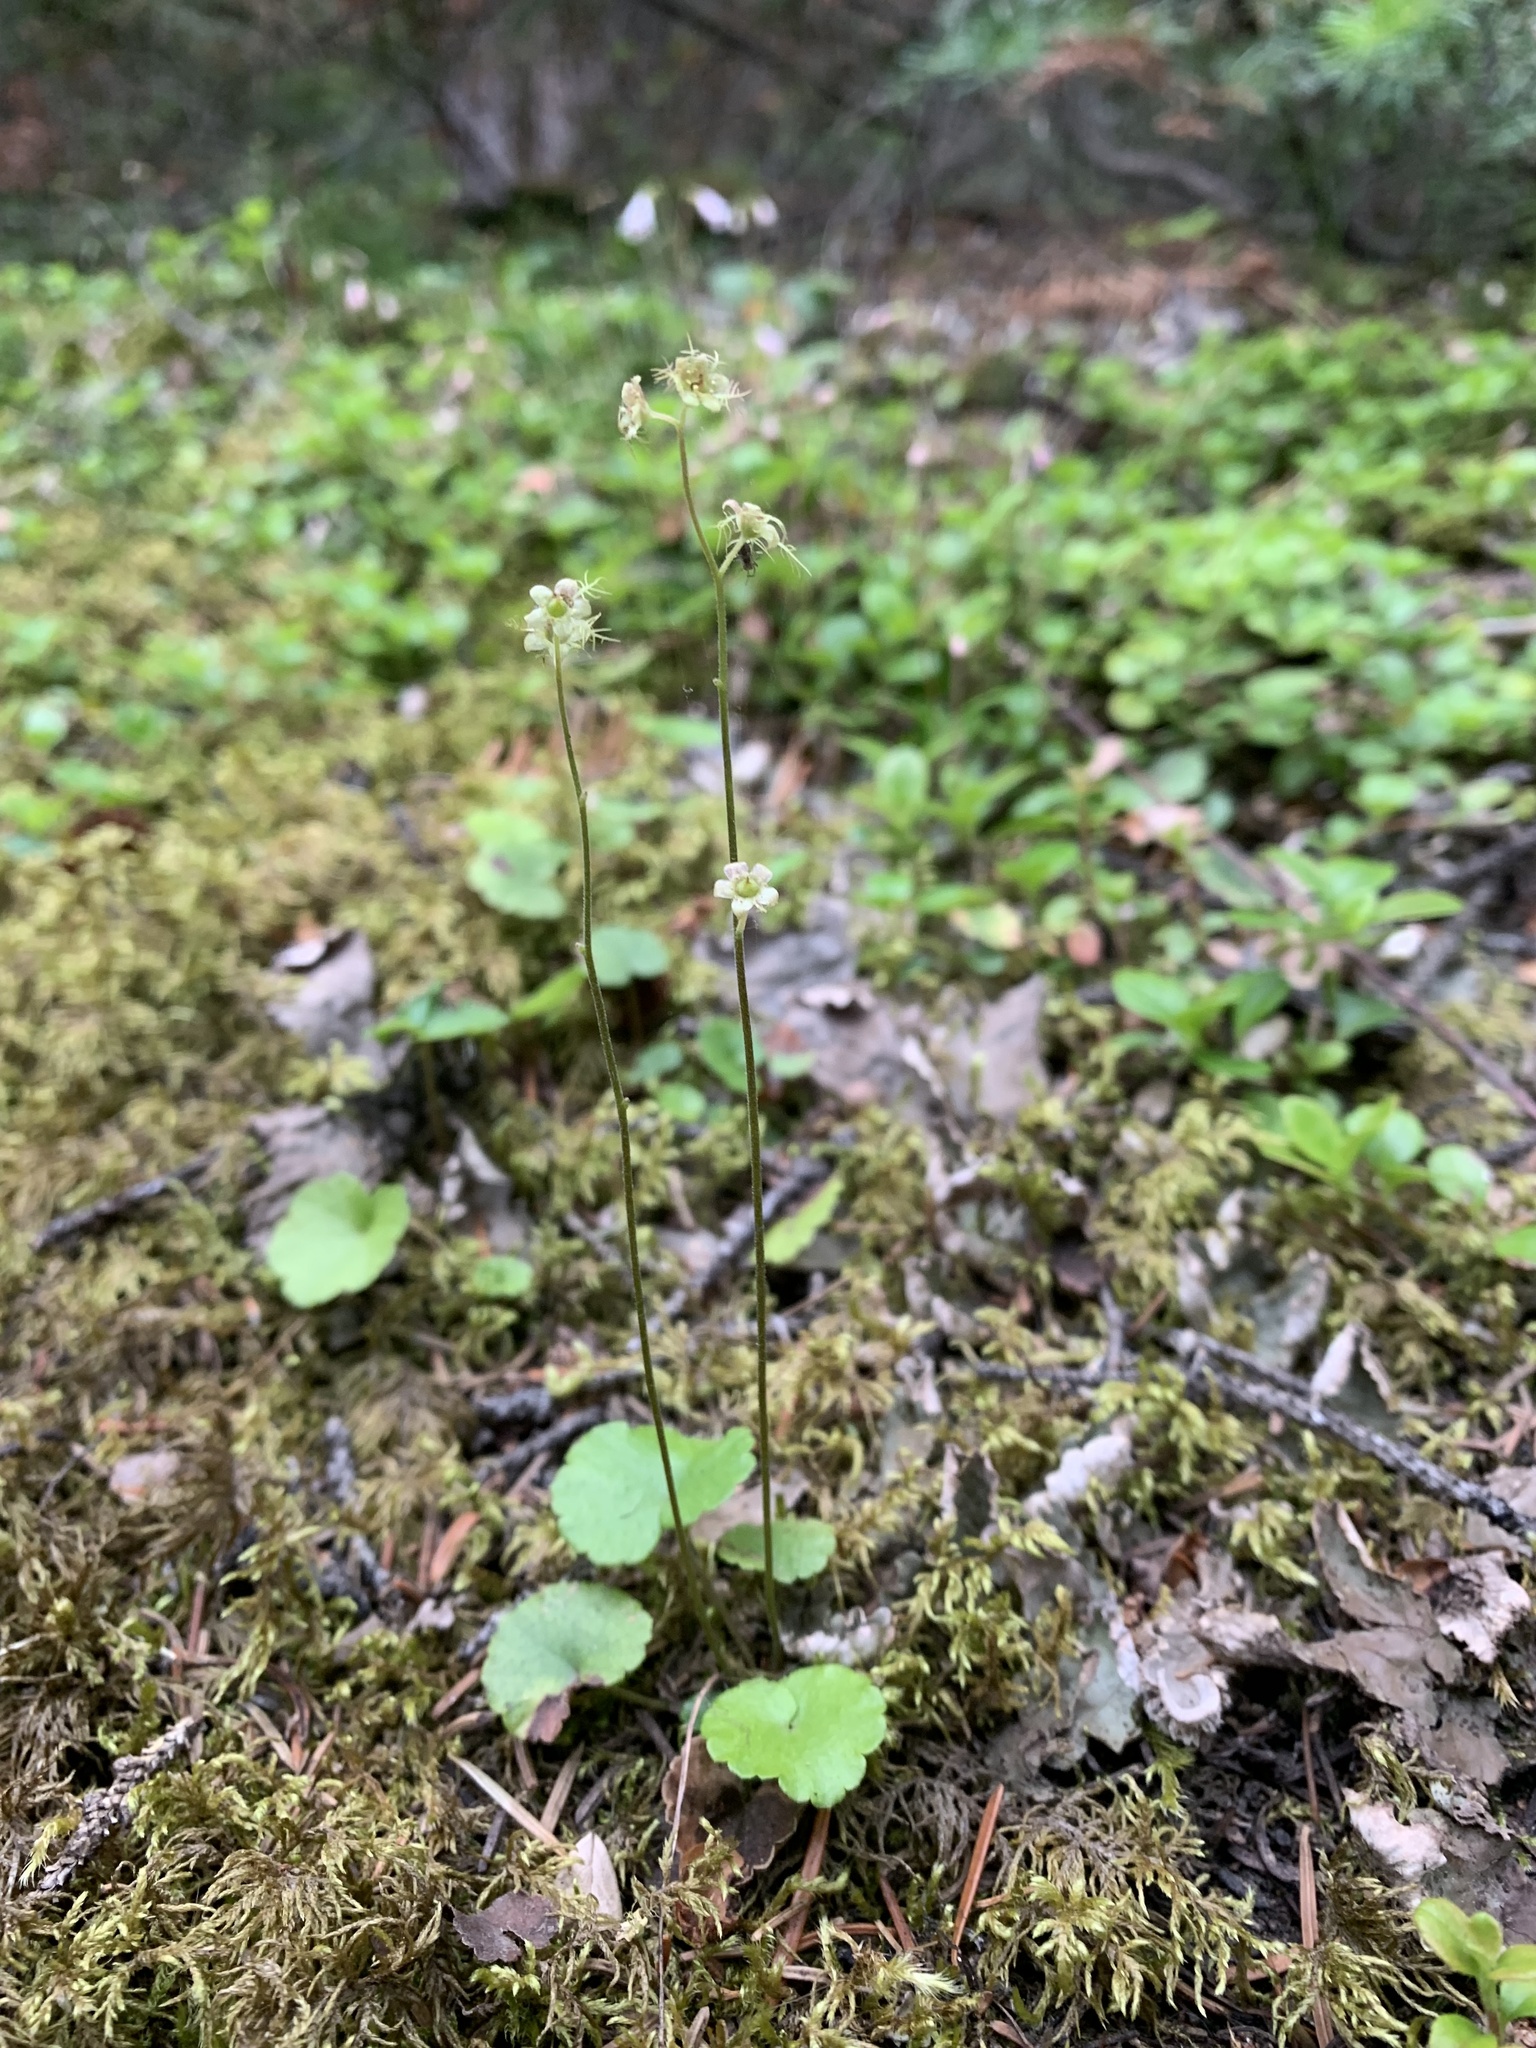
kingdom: Plantae
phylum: Tracheophyta
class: Magnoliopsida
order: Saxifragales
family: Saxifragaceae
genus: Mitella
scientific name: Mitella nuda
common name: Bare-stemmed bishop's-cap
